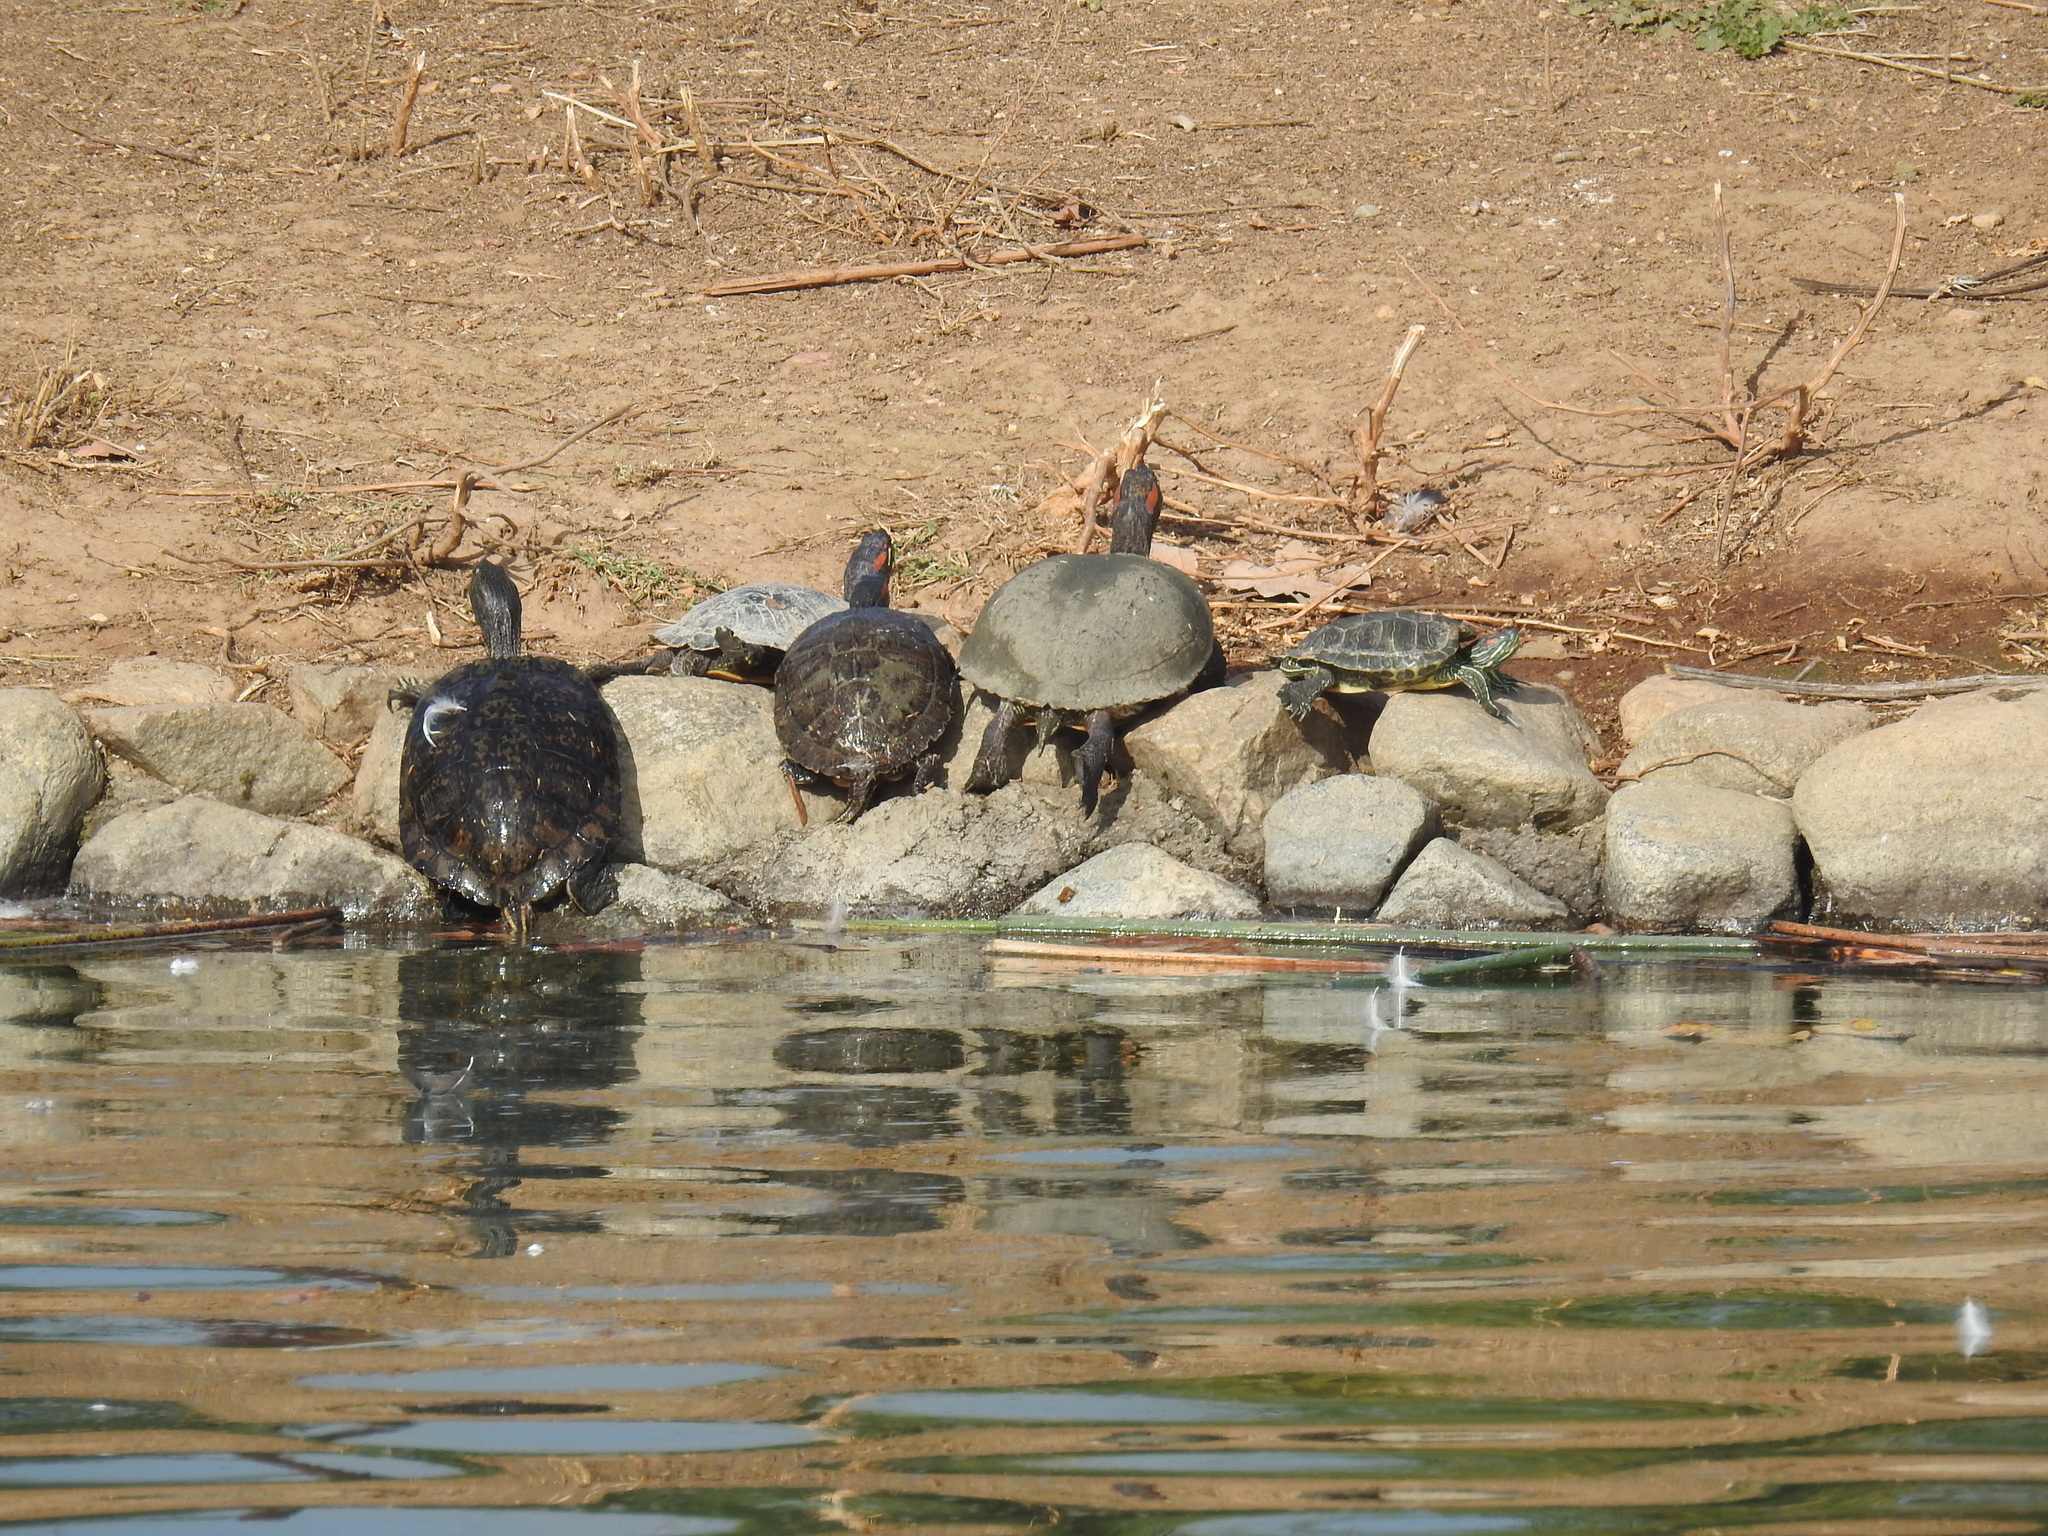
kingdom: Animalia
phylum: Chordata
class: Testudines
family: Emydidae
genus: Trachemys
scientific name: Trachemys scripta
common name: Slider
